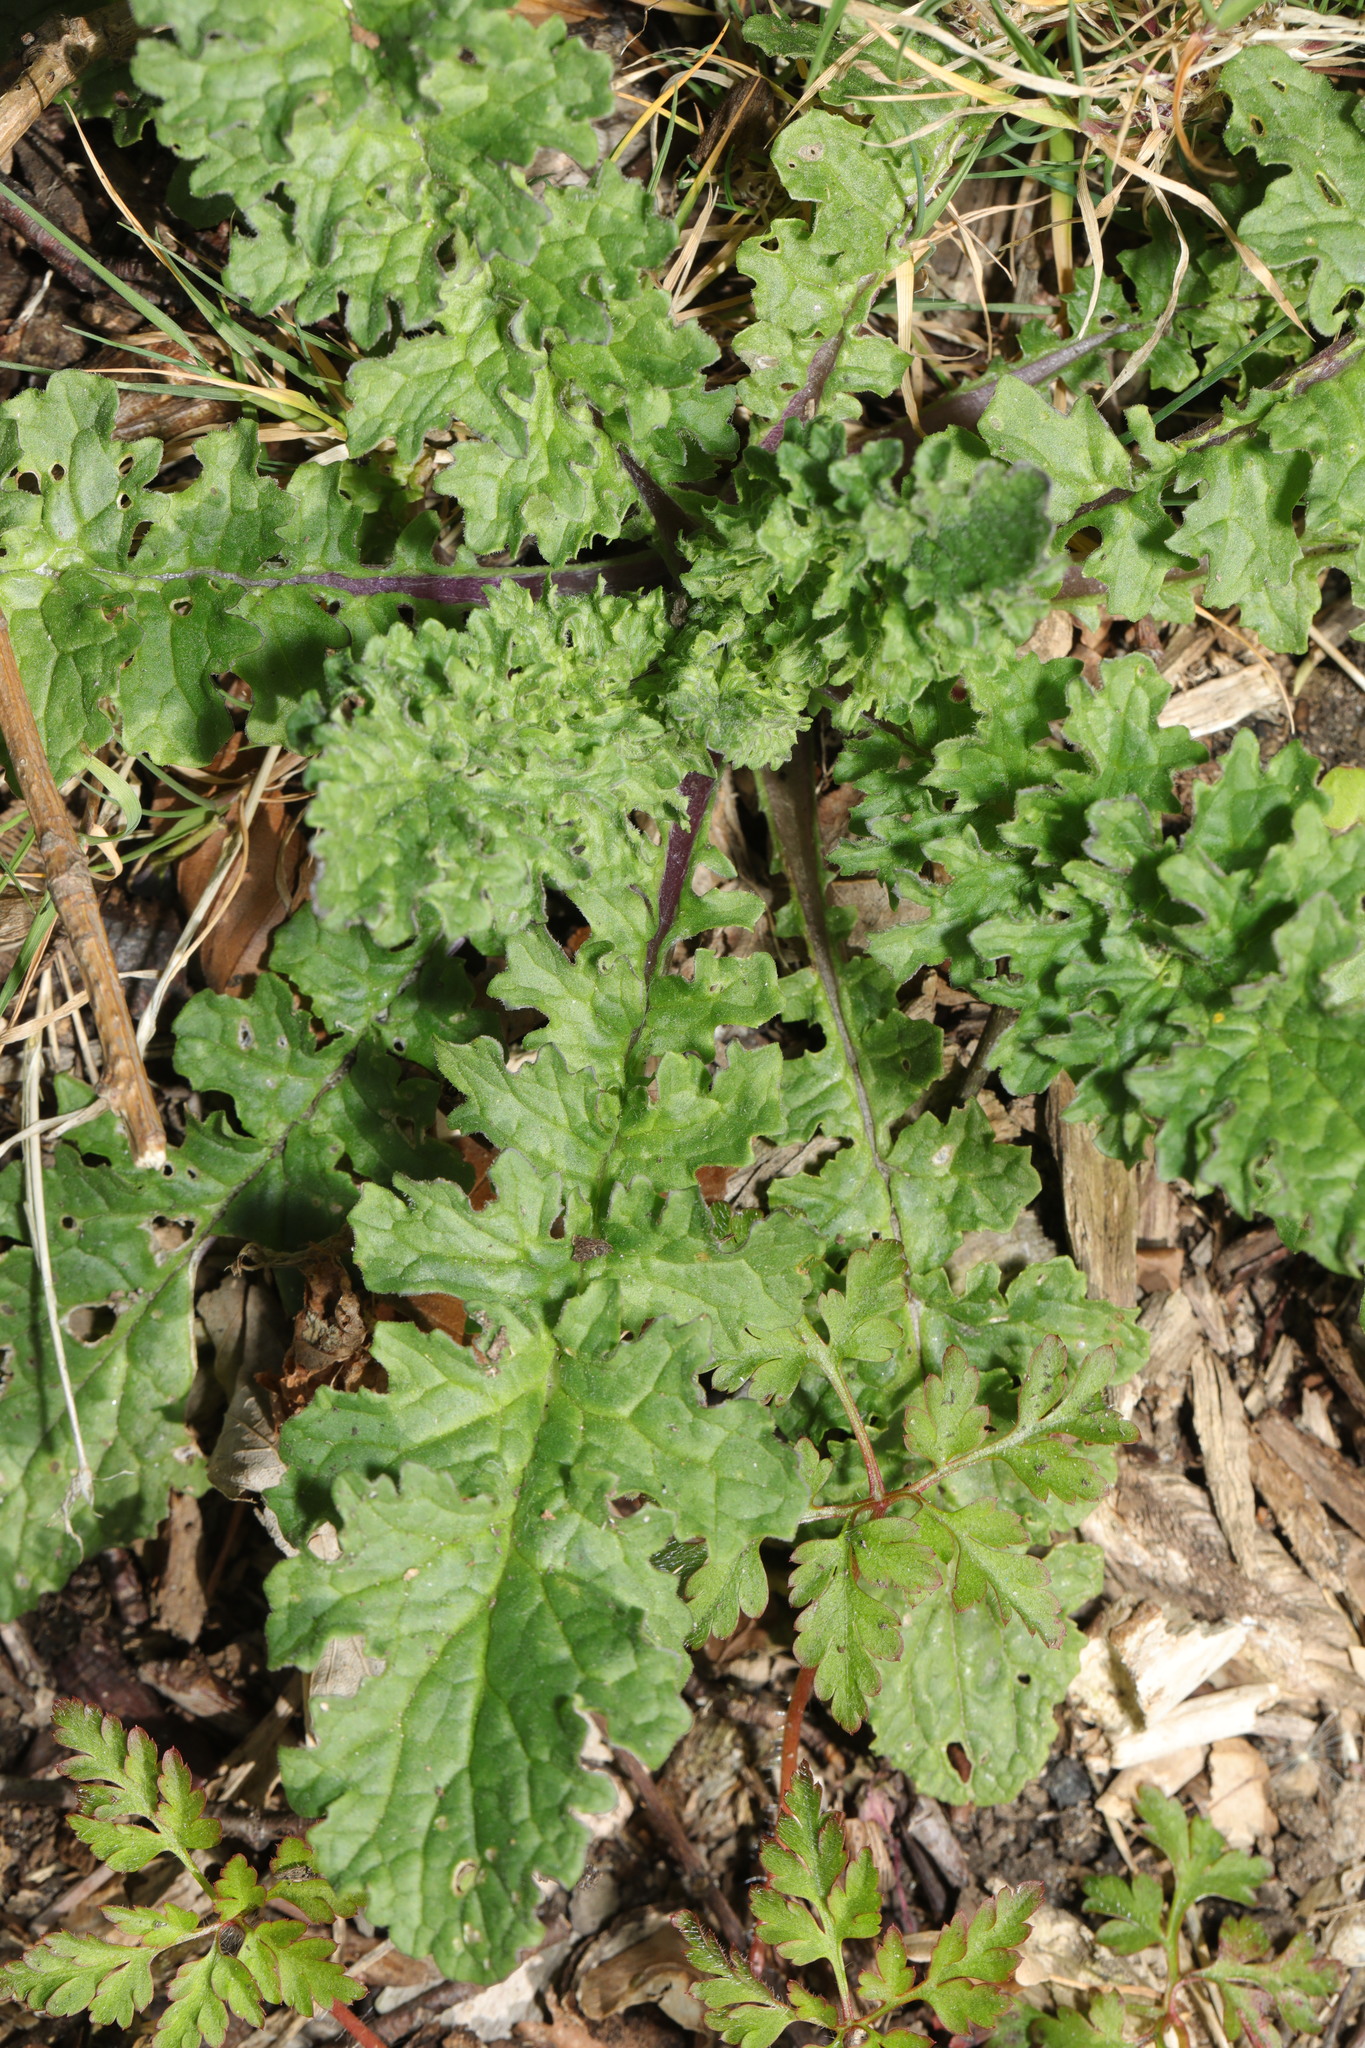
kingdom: Plantae
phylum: Tracheophyta
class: Magnoliopsida
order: Asterales
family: Asteraceae
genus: Jacobaea
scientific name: Jacobaea vulgaris
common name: Stinking willie
